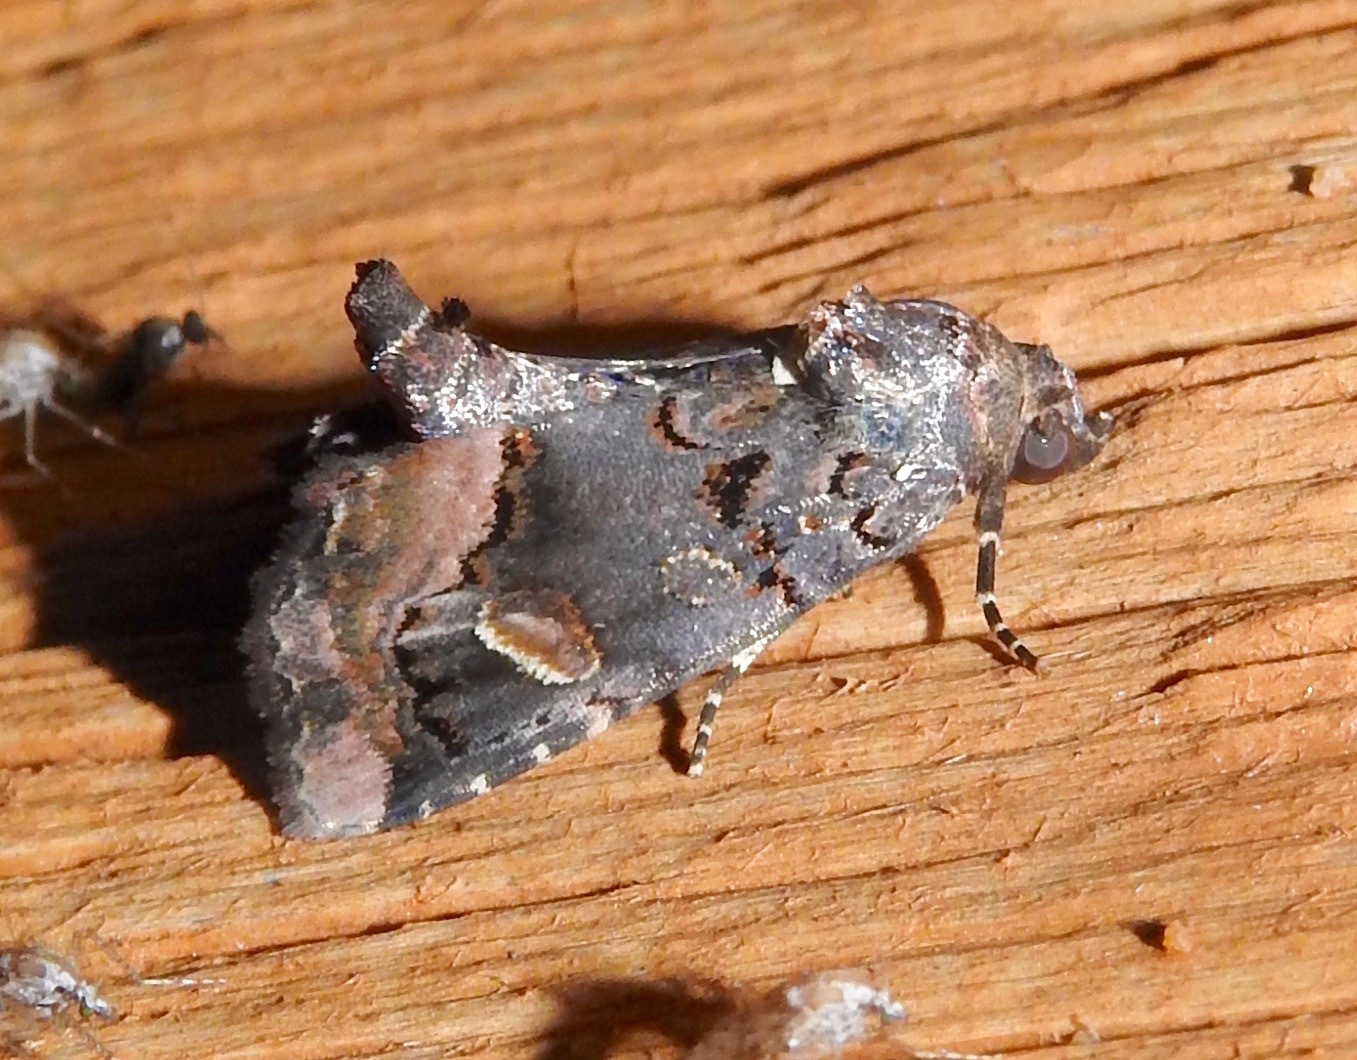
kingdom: Animalia
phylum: Arthropoda
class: Insecta
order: Lepidoptera
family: Noctuidae
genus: Homophoberia
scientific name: Homophoberia apicosa
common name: Black wedge-spot
